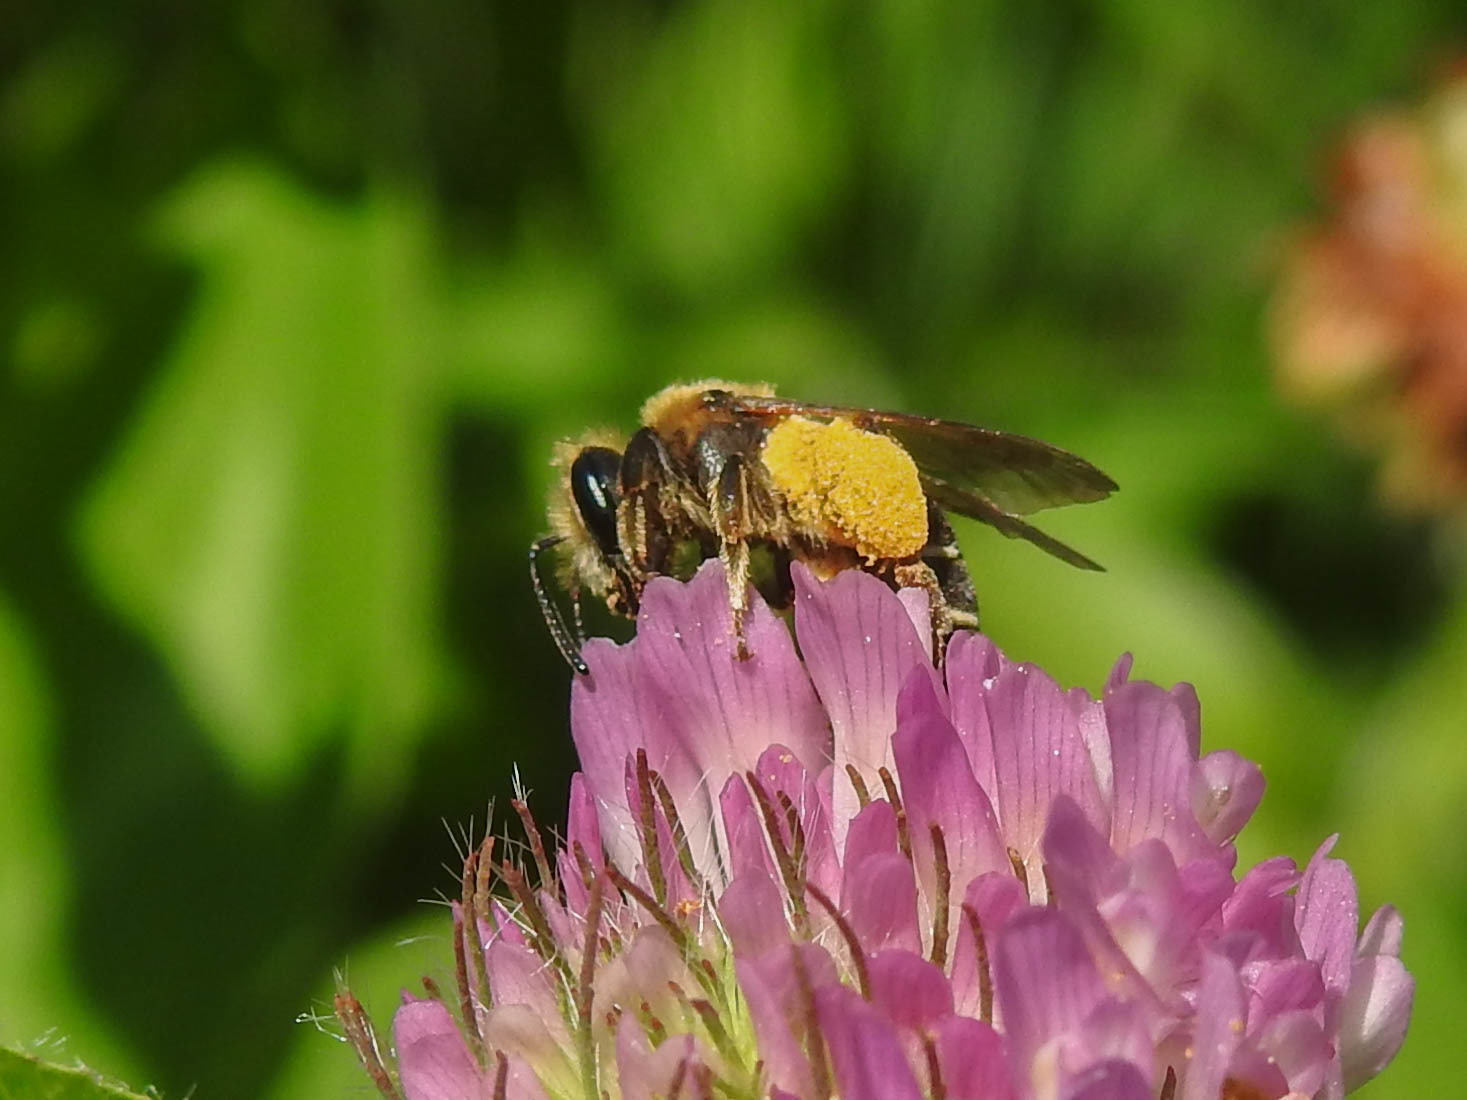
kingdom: Animalia
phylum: Arthropoda
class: Insecta
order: Hymenoptera
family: Andrenidae
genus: Andrena
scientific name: Andrena wilkella
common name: Wilke's mining bee
